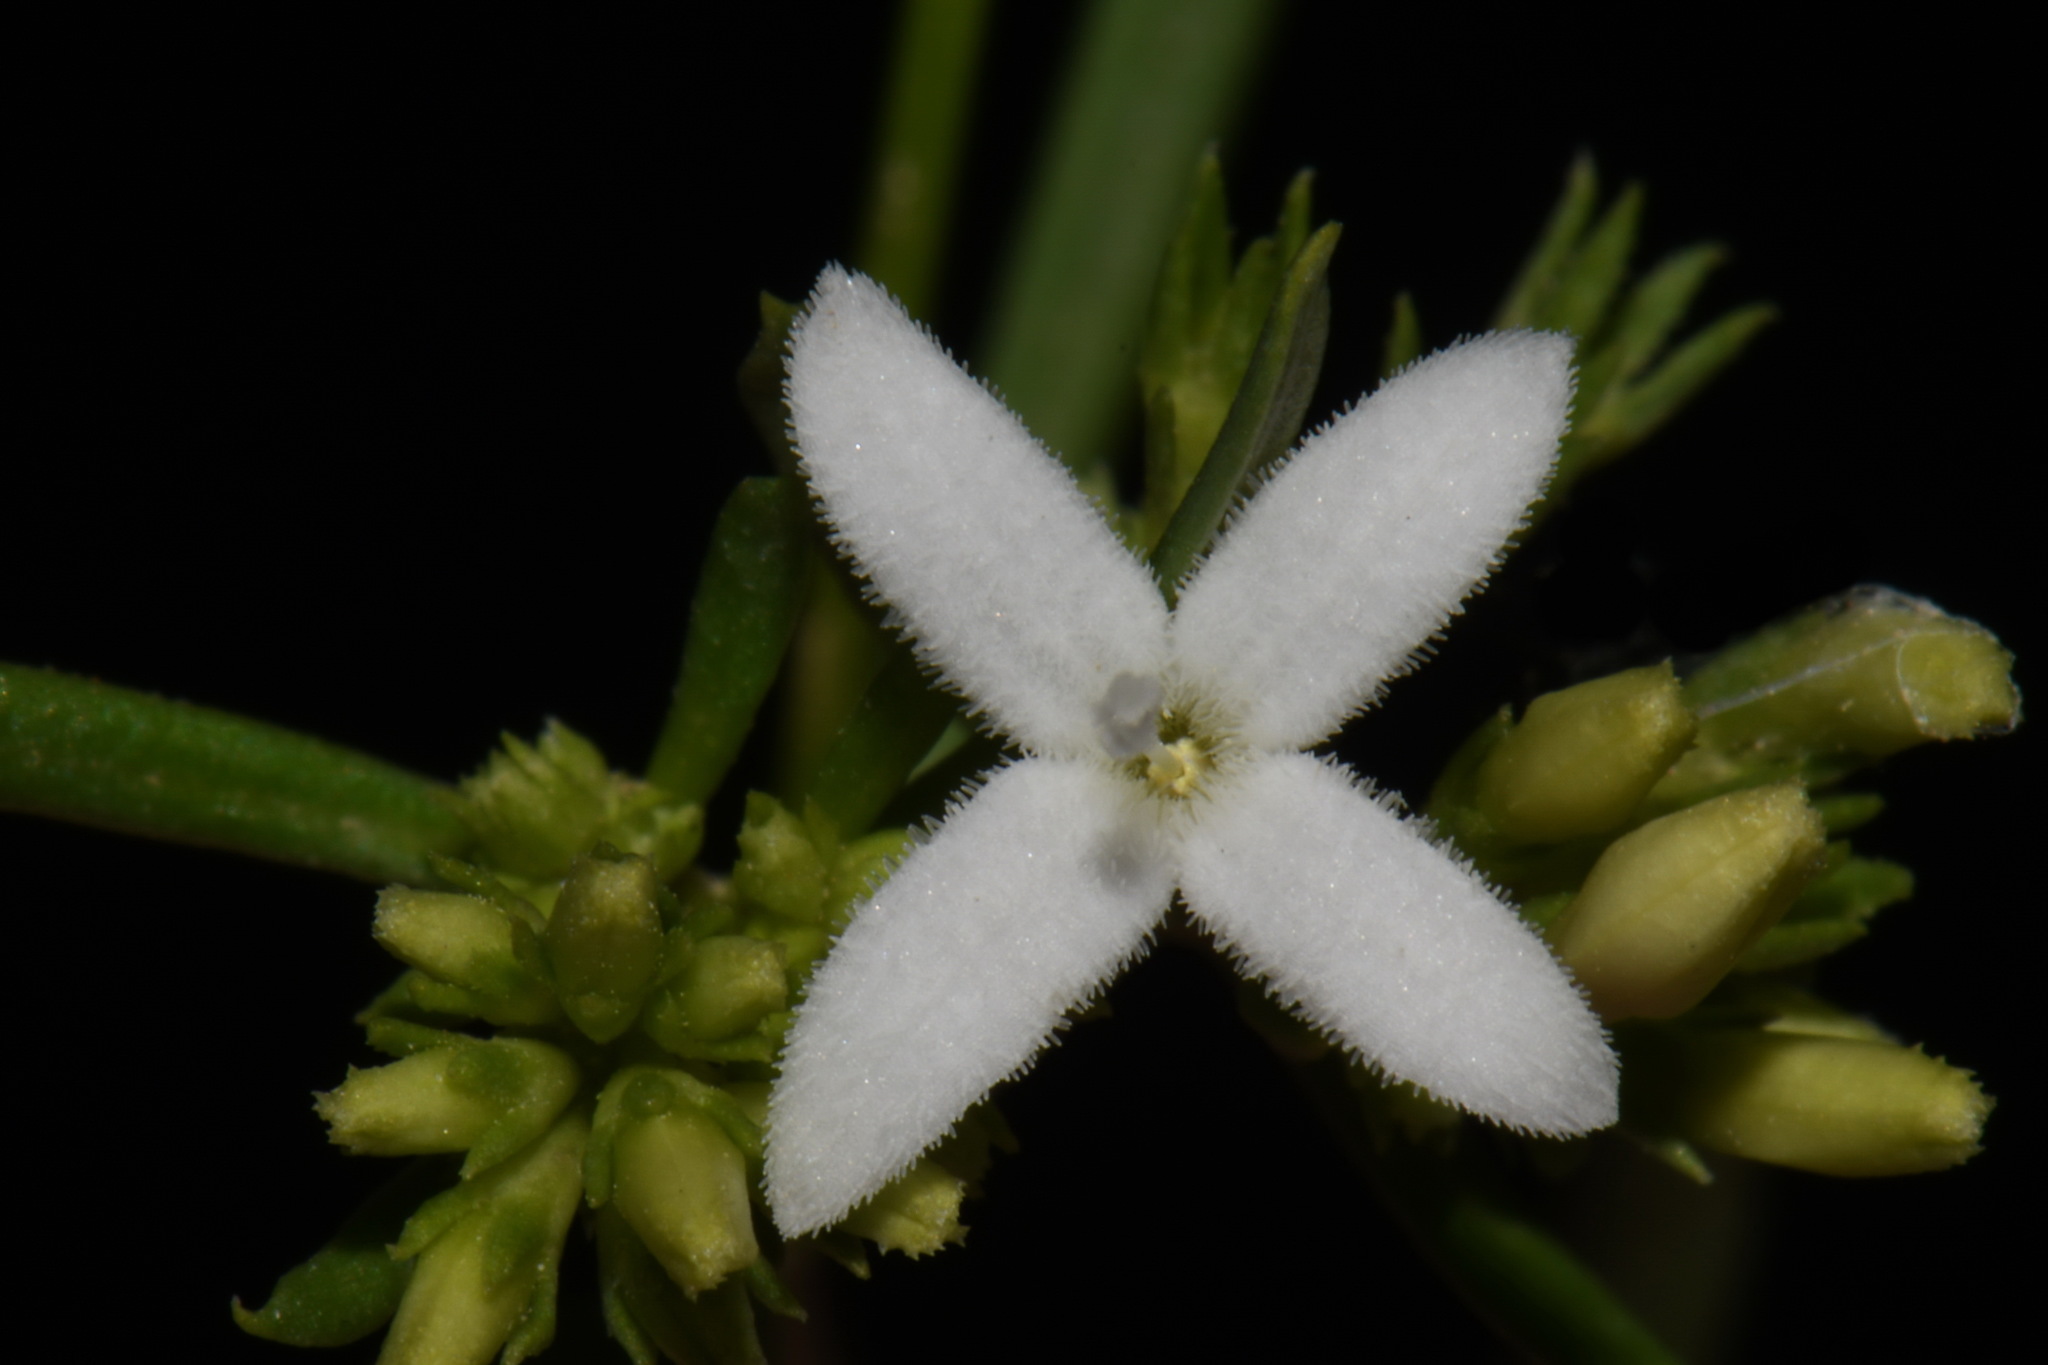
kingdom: Plantae
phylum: Tracheophyta
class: Magnoliopsida
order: Gentianales
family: Rubiaceae
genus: Stenaria
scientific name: Stenaria nigricans
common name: Diamondflowers
